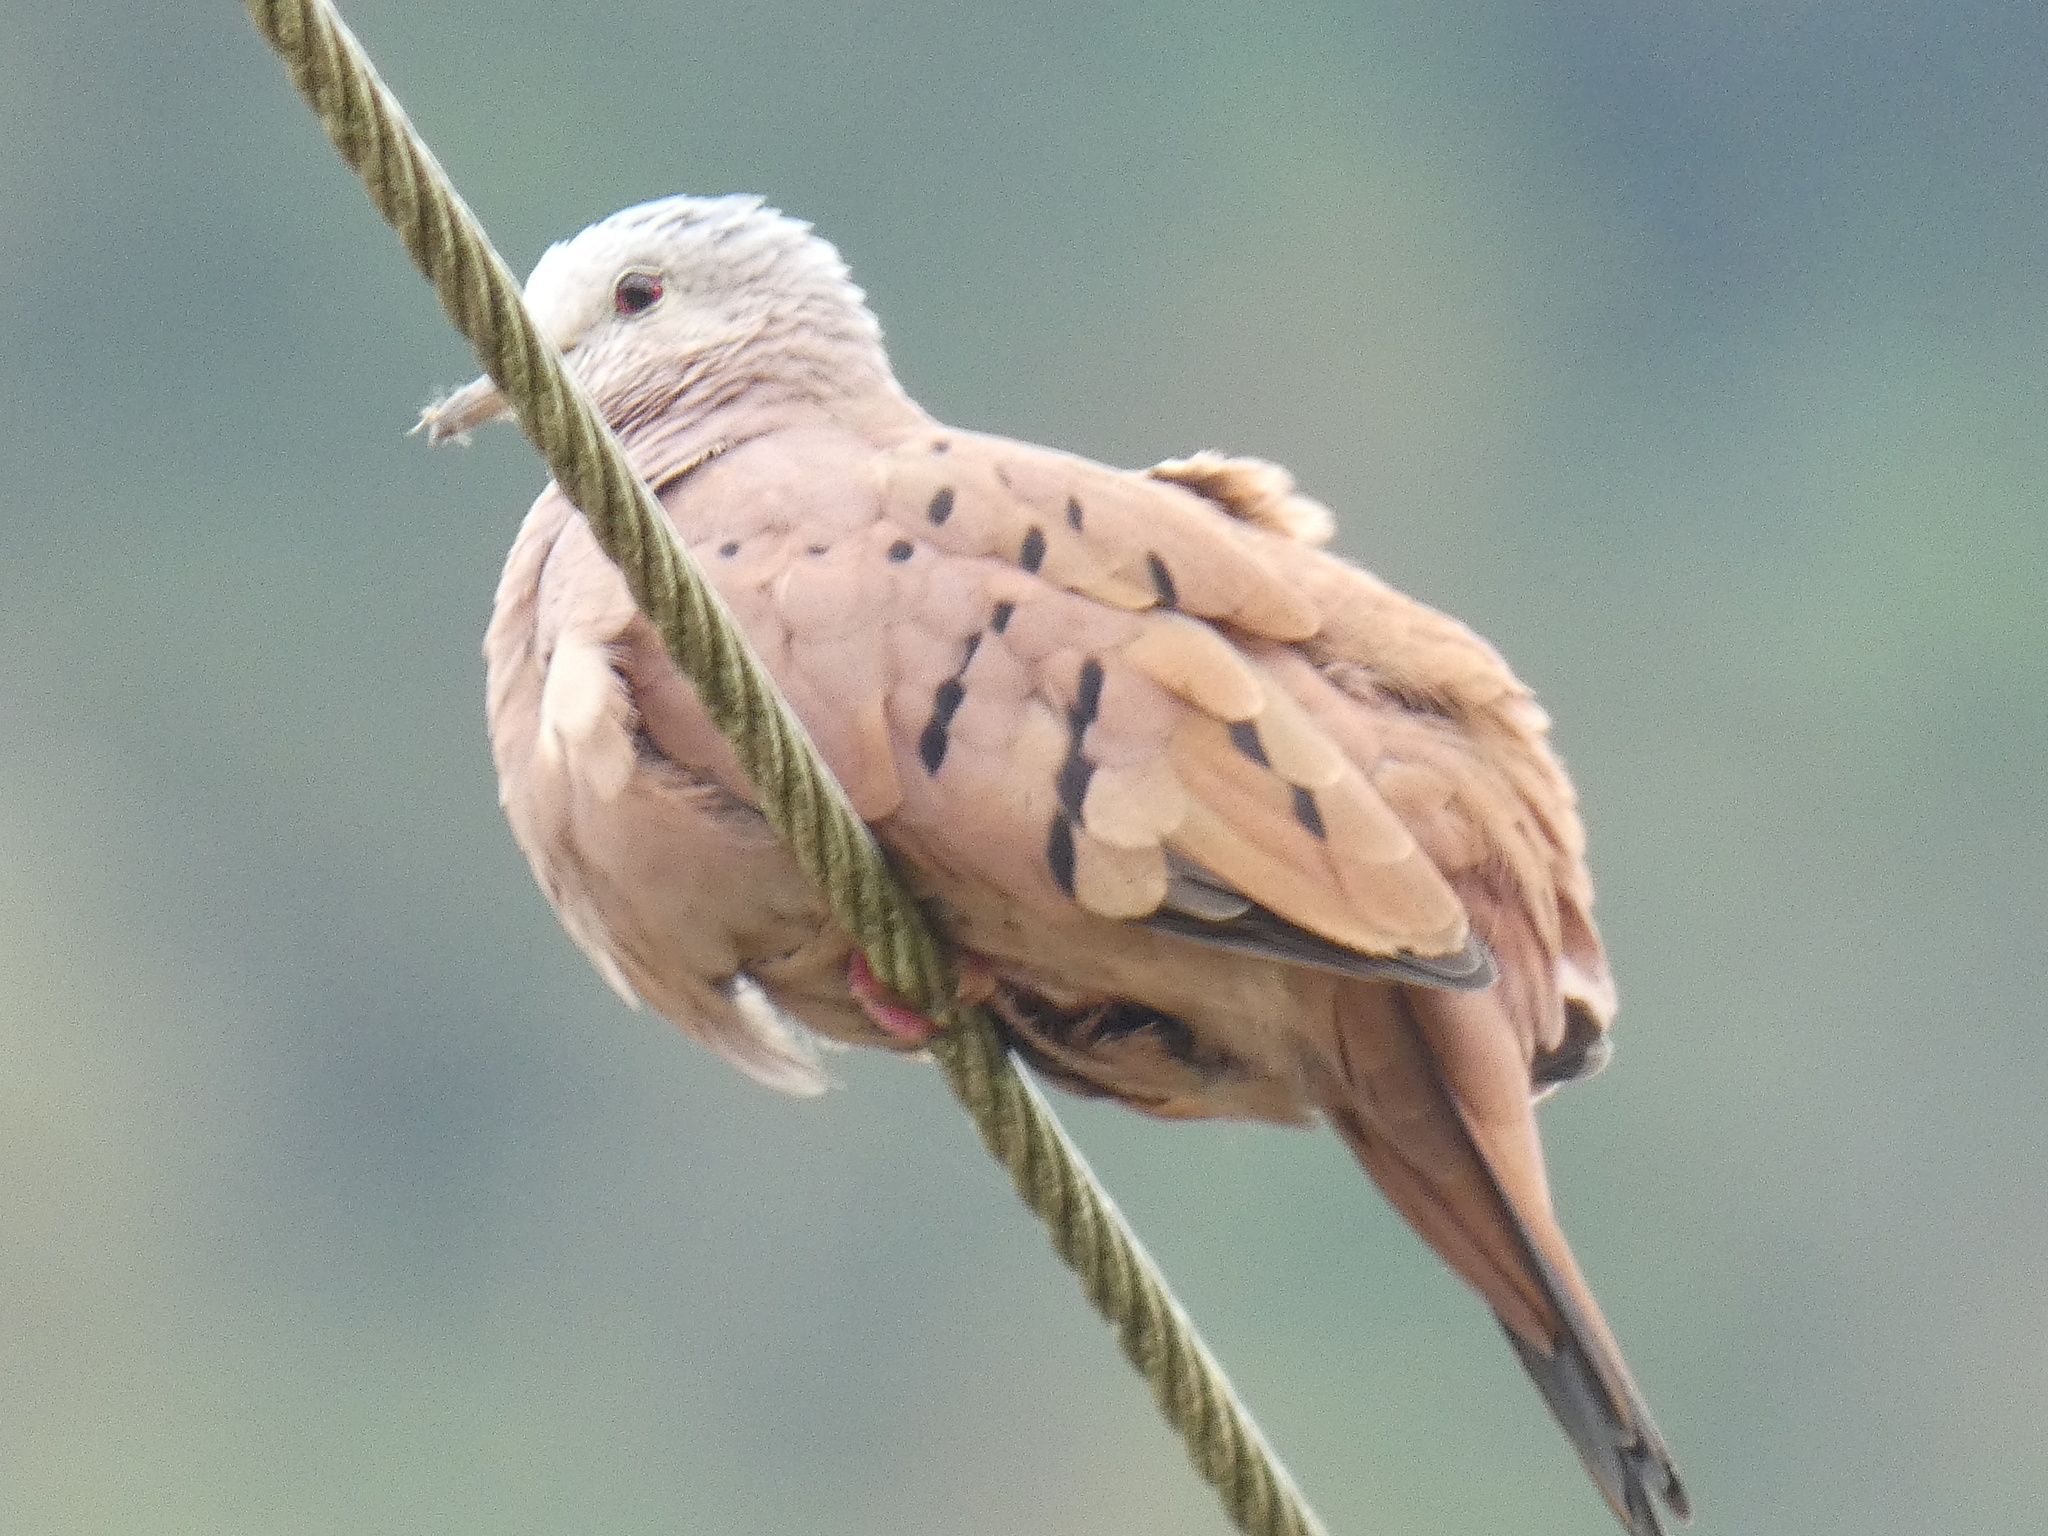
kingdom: Animalia
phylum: Chordata
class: Aves
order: Columbiformes
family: Columbidae
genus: Columbina
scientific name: Columbina talpacoti
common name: Ruddy ground dove
